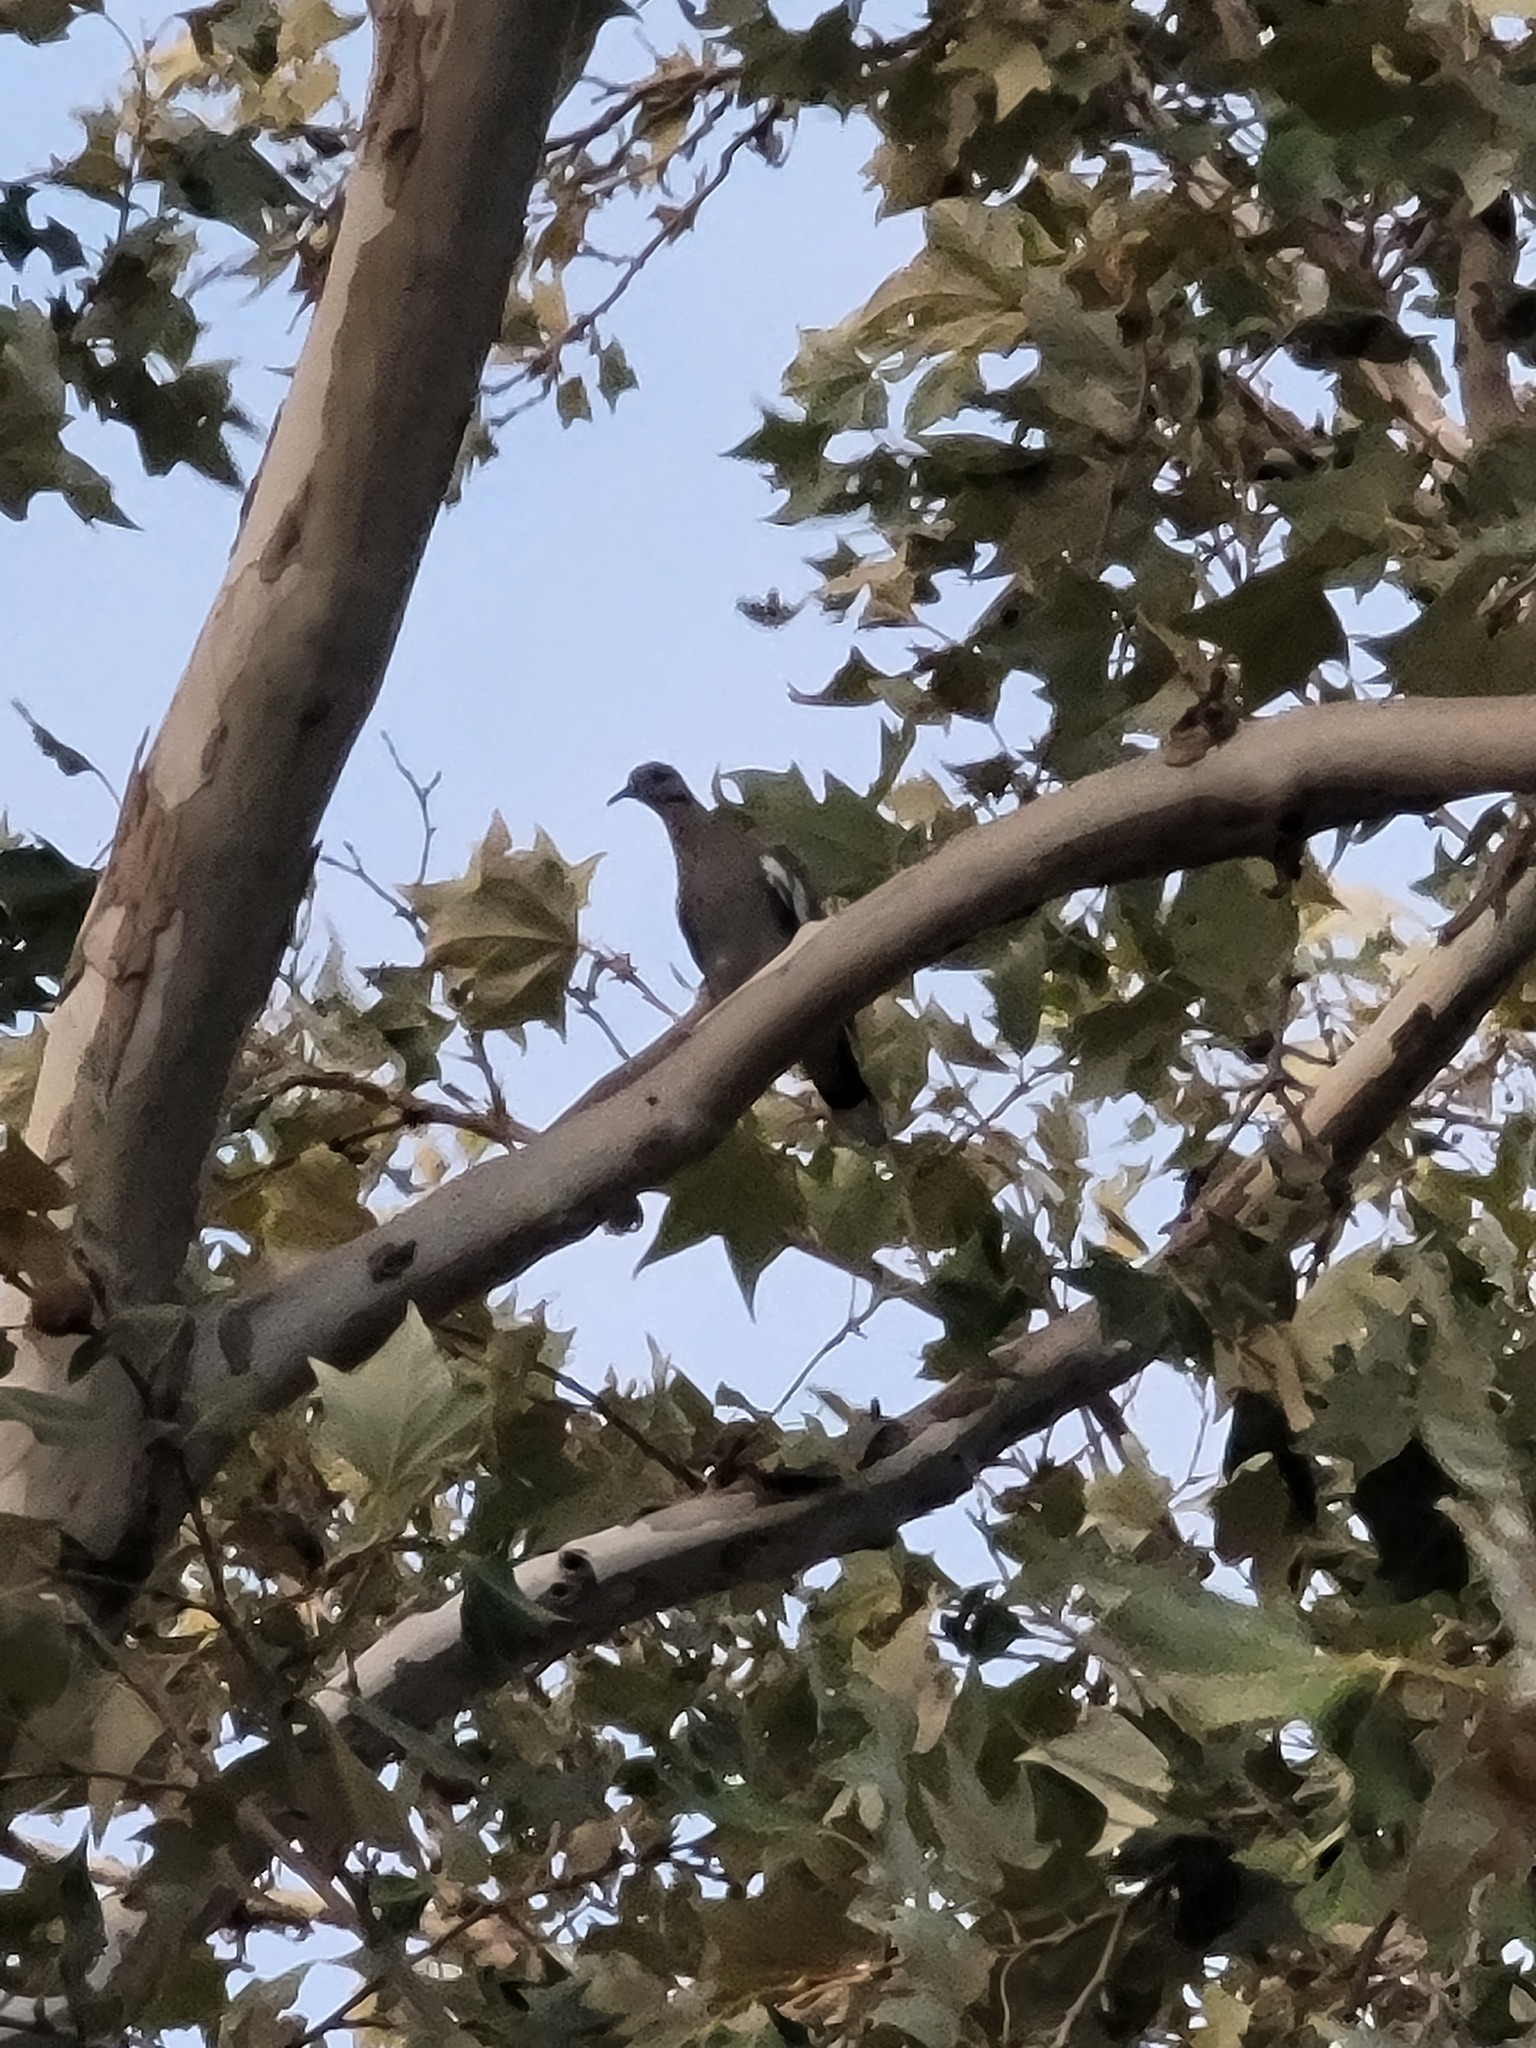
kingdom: Animalia
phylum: Chordata
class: Aves
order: Columbiformes
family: Columbidae
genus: Zenaida
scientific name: Zenaida asiatica
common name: White-winged dove
